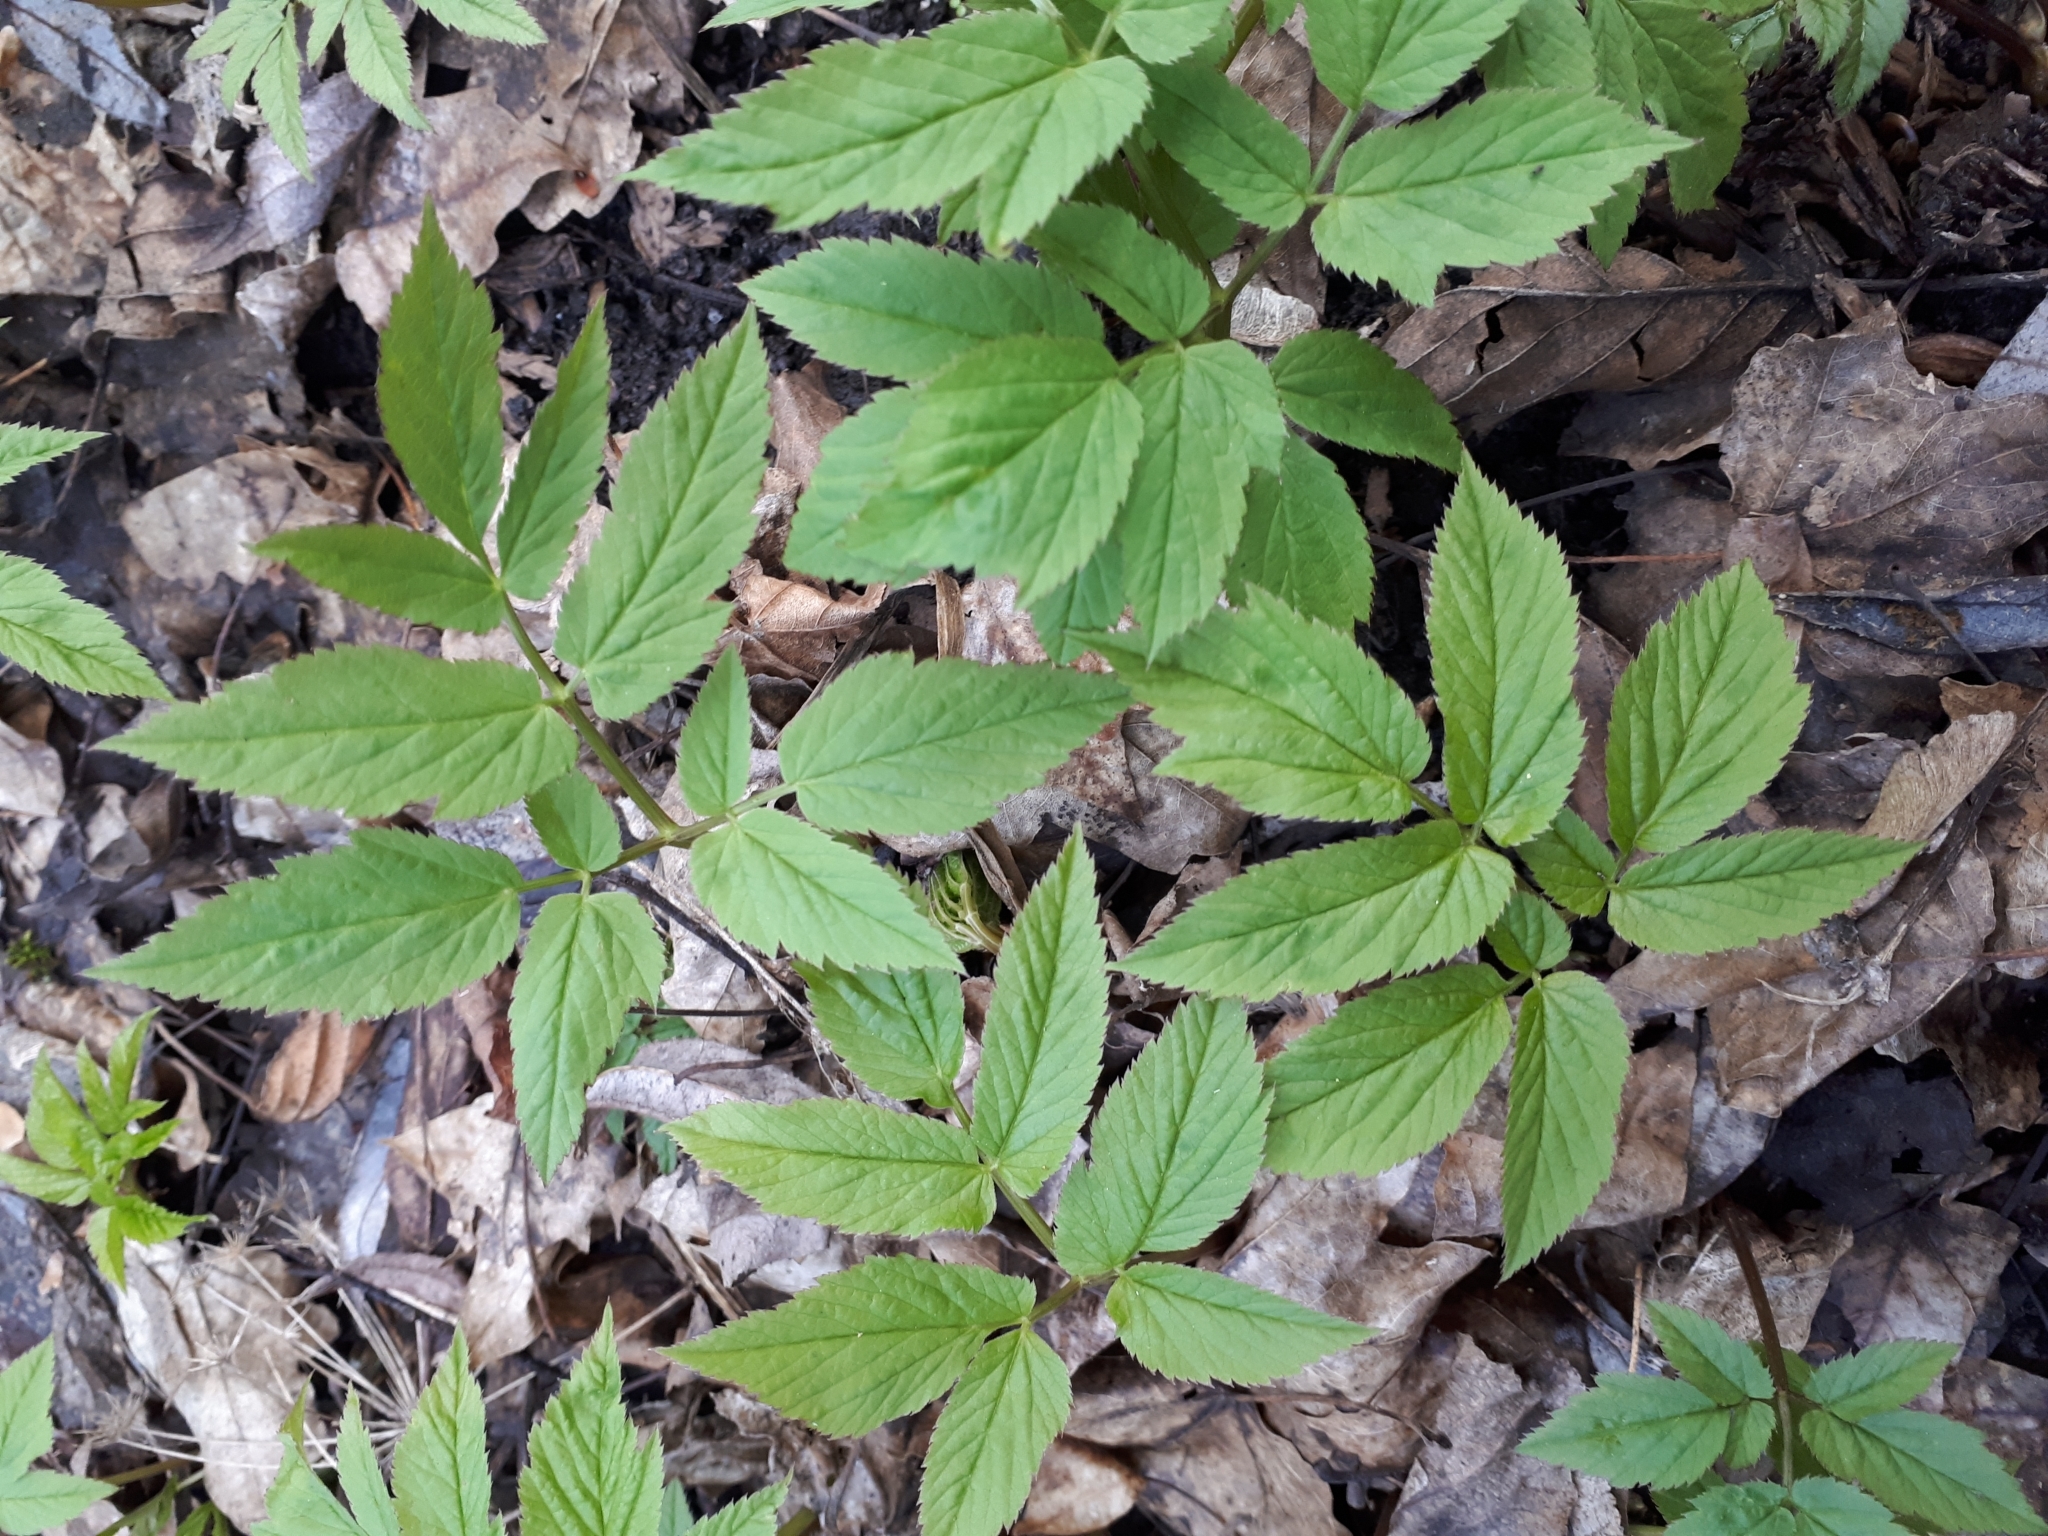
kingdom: Plantae
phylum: Tracheophyta
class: Magnoliopsida
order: Apiales
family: Apiaceae
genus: Aegopodium
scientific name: Aegopodium podagraria
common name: Ground-elder
